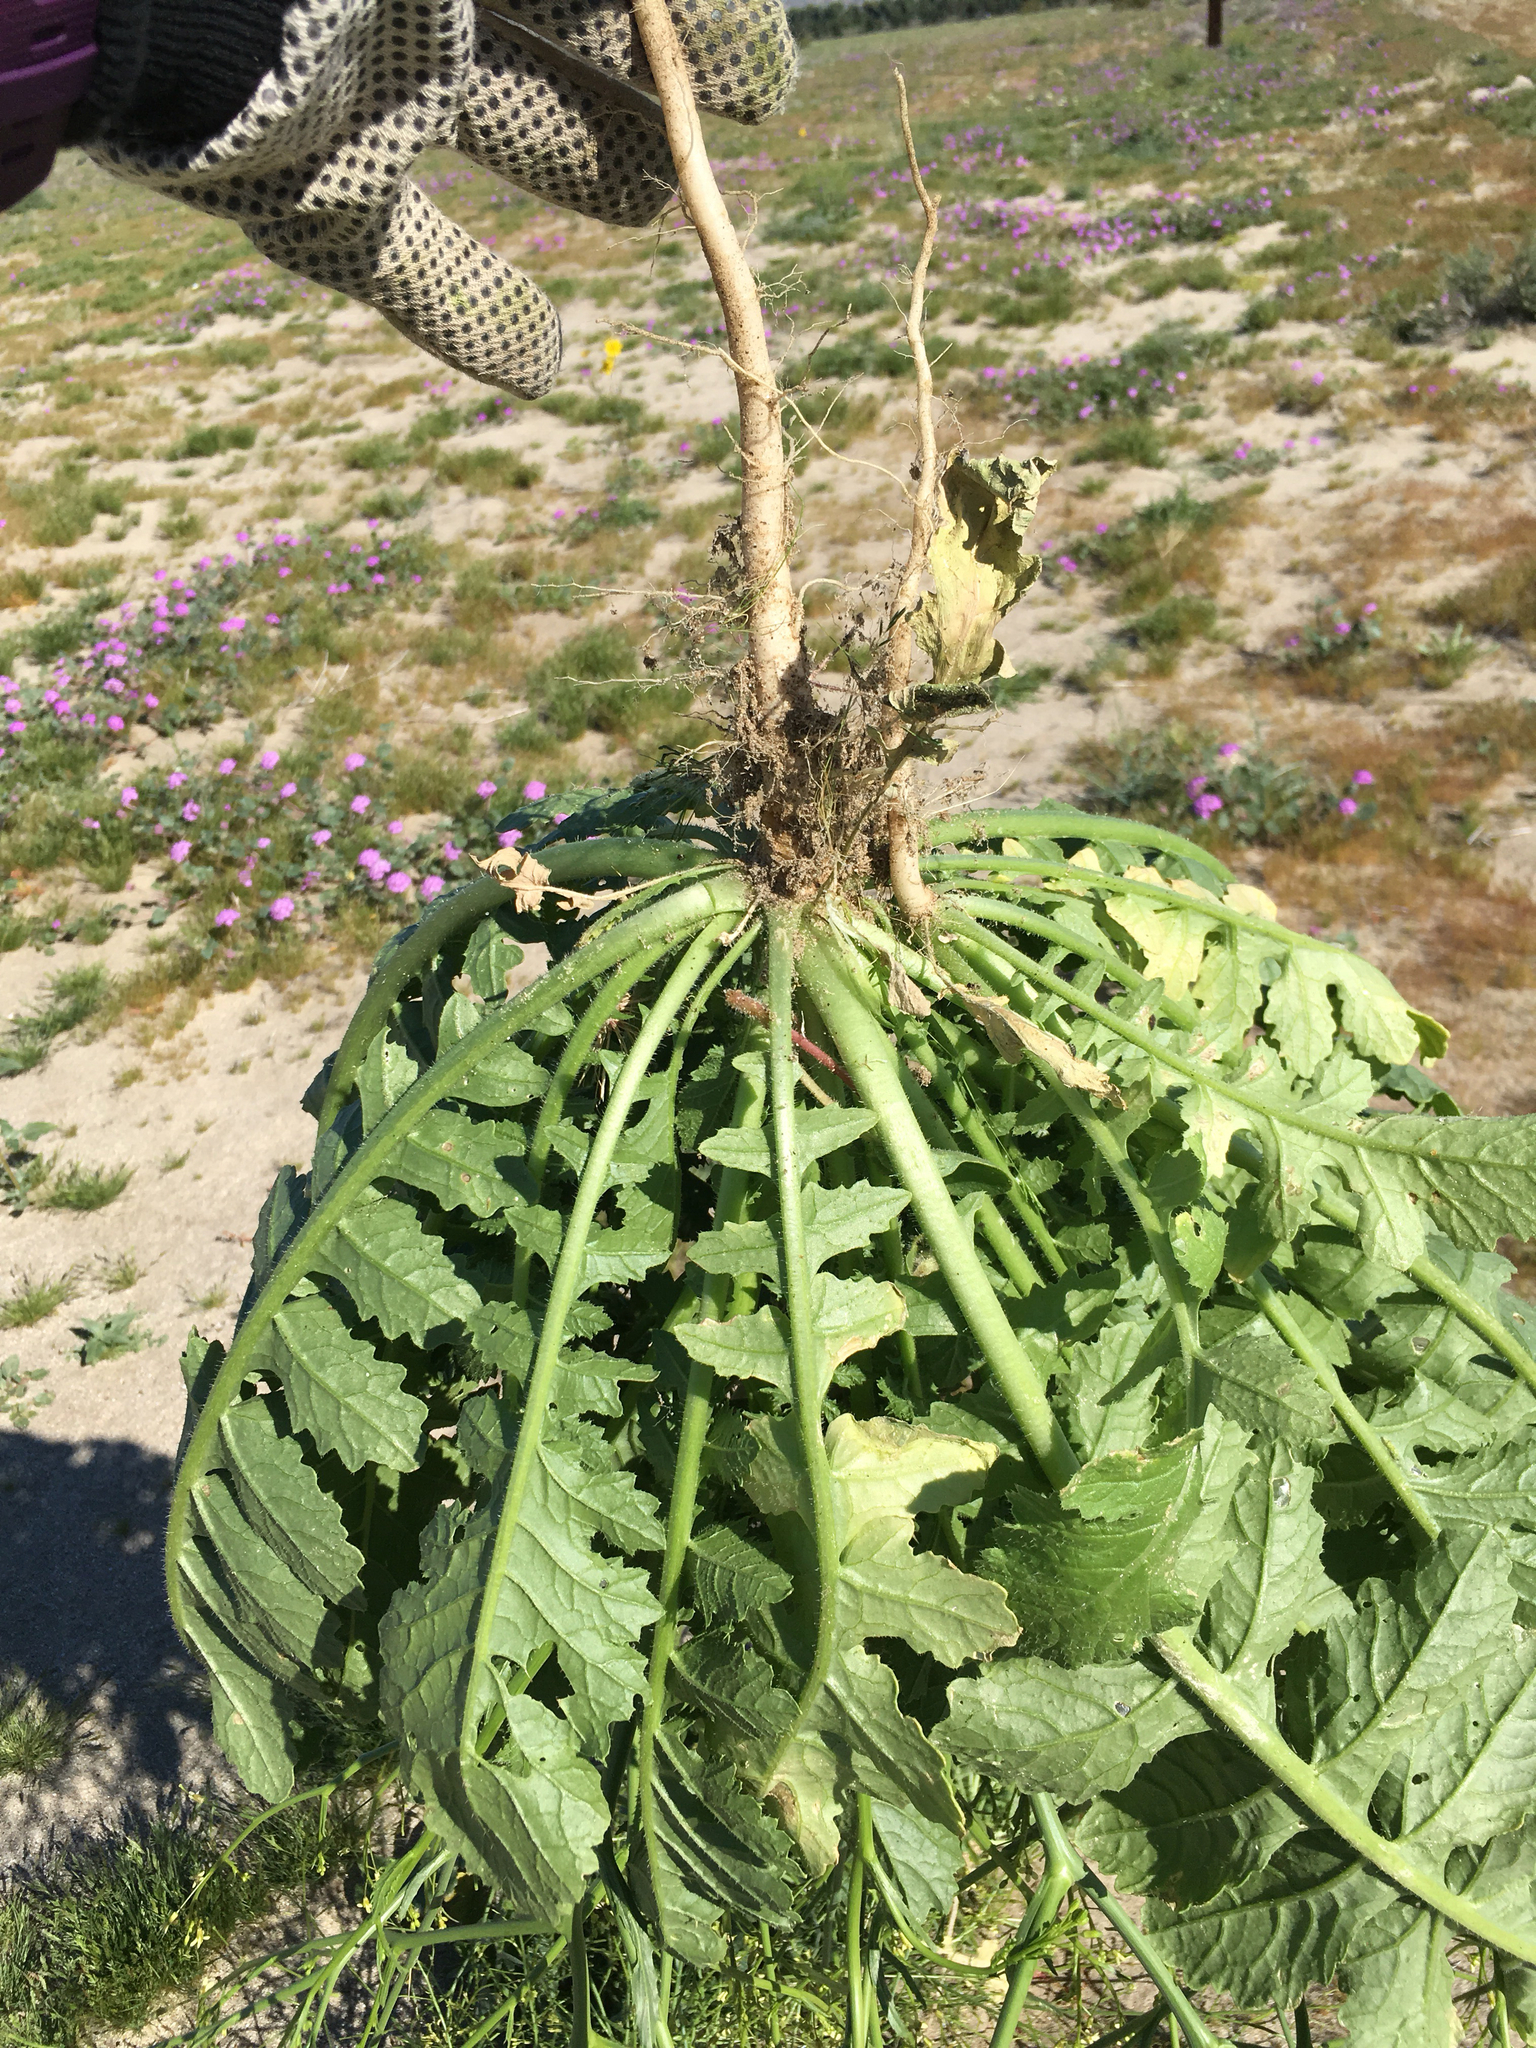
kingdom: Plantae
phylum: Tracheophyta
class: Magnoliopsida
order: Brassicales
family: Brassicaceae
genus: Brassica
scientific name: Brassica tournefortii
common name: Pale cabbage
